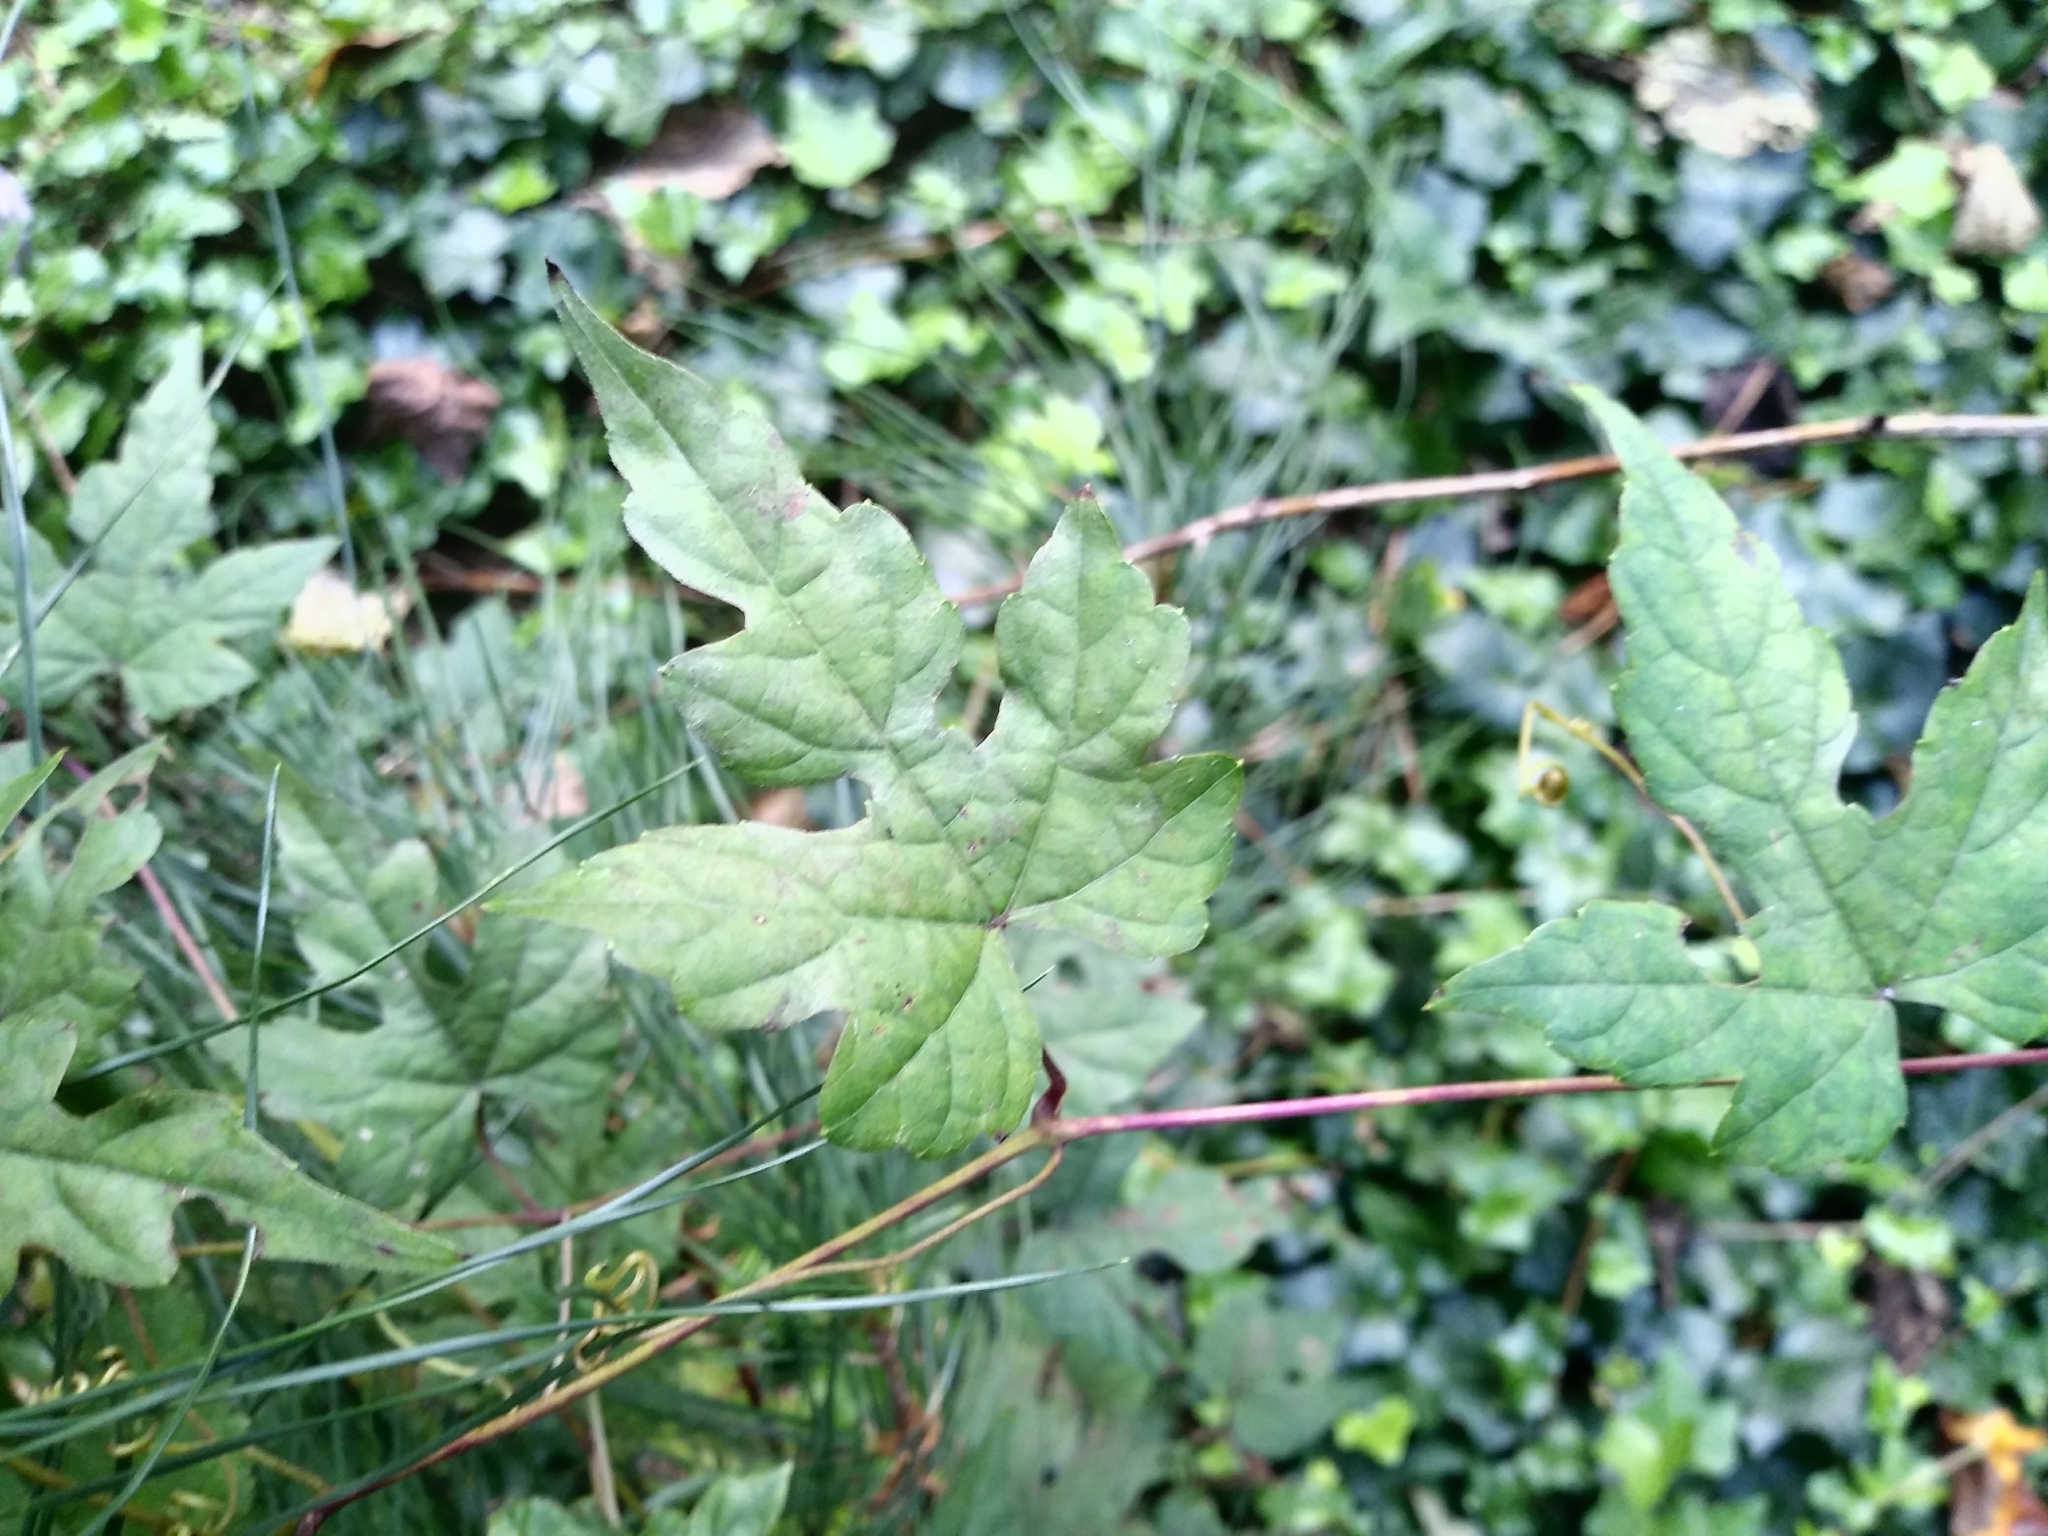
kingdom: Plantae
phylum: Tracheophyta
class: Magnoliopsida
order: Vitales
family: Vitaceae
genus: Ampelopsis
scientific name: Ampelopsis glandulosa
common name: Amur peppervine
